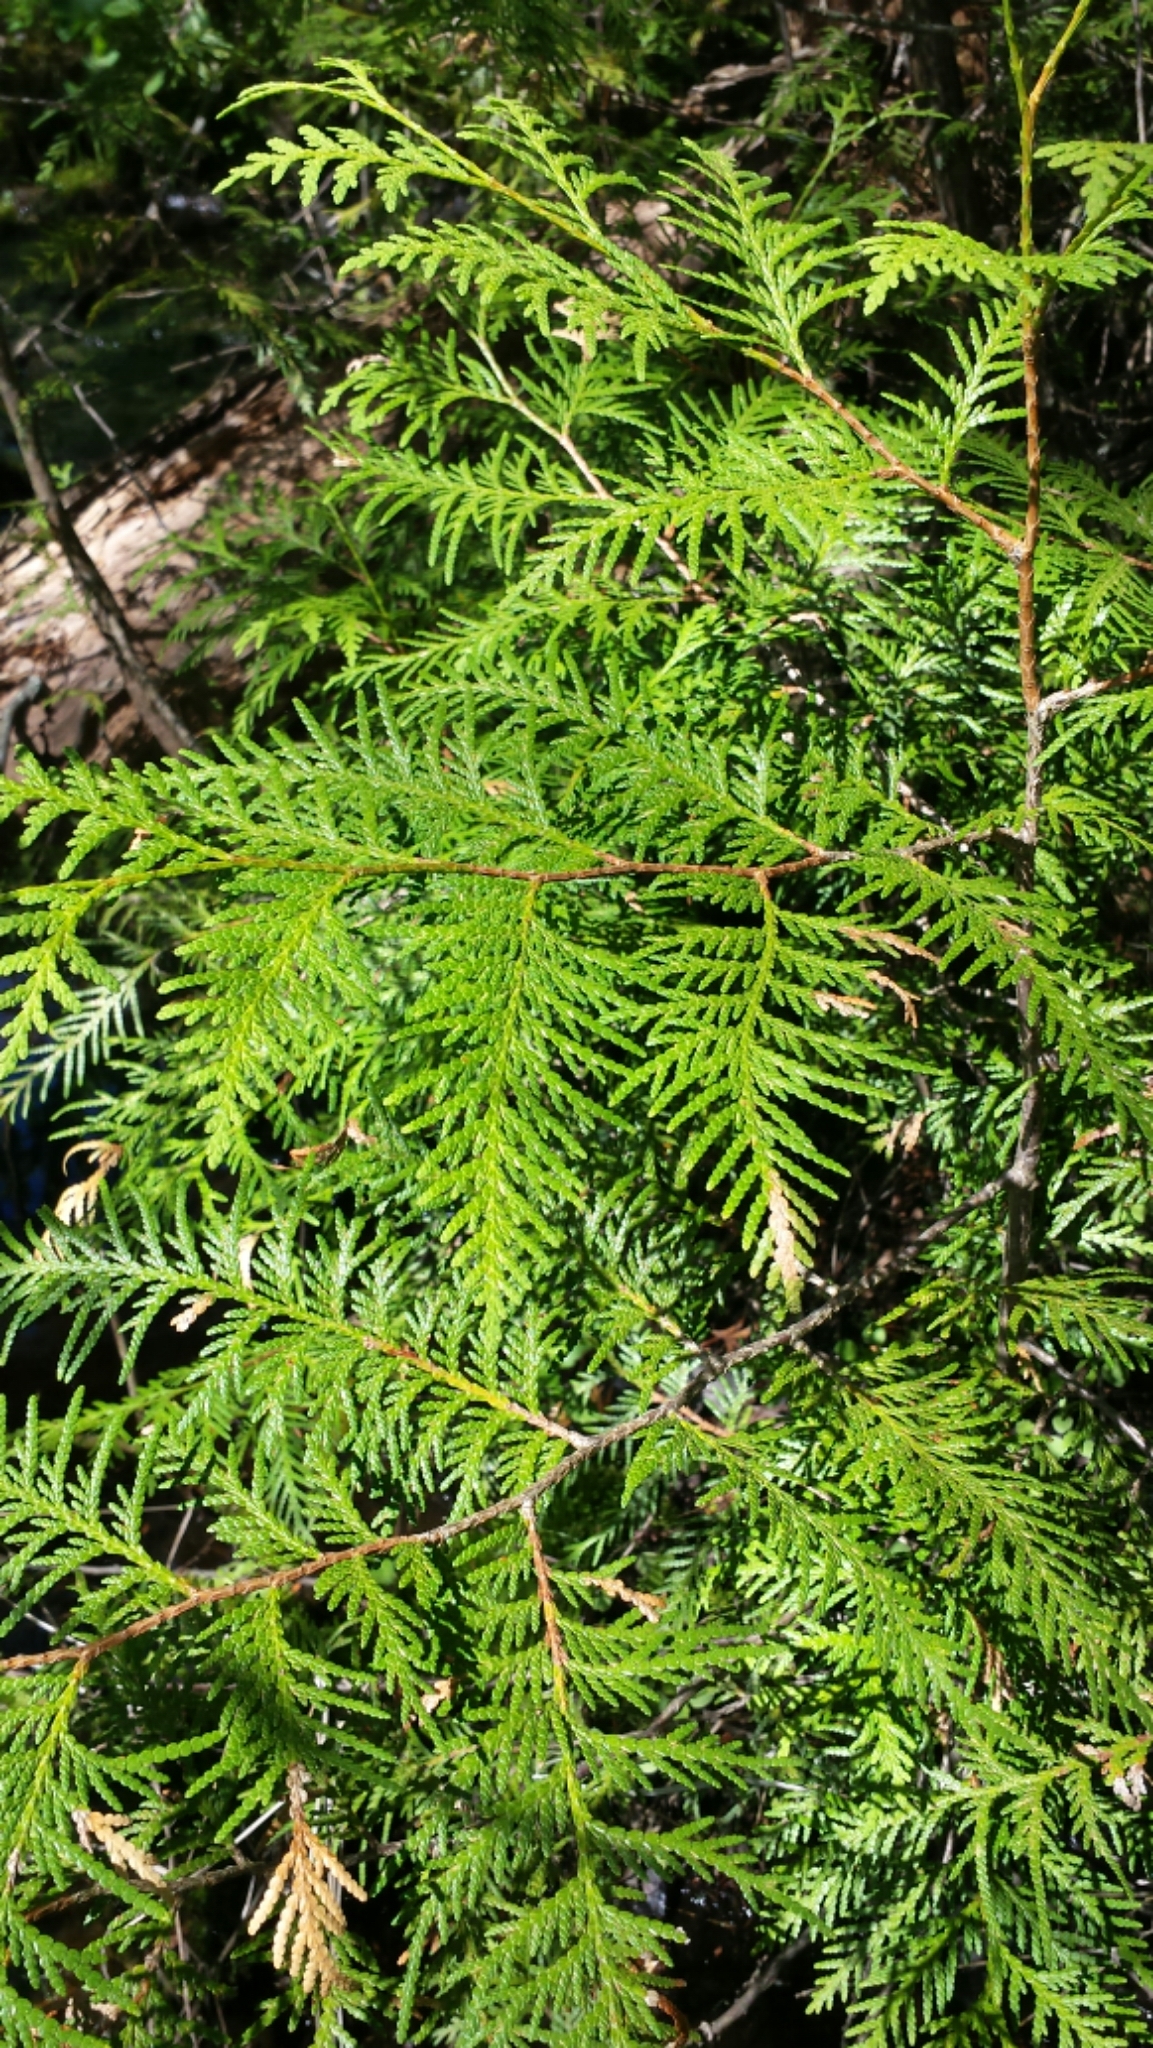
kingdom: Plantae
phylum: Tracheophyta
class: Pinopsida
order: Pinales
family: Cupressaceae
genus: Thuja
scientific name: Thuja occidentalis
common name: Northern white-cedar
